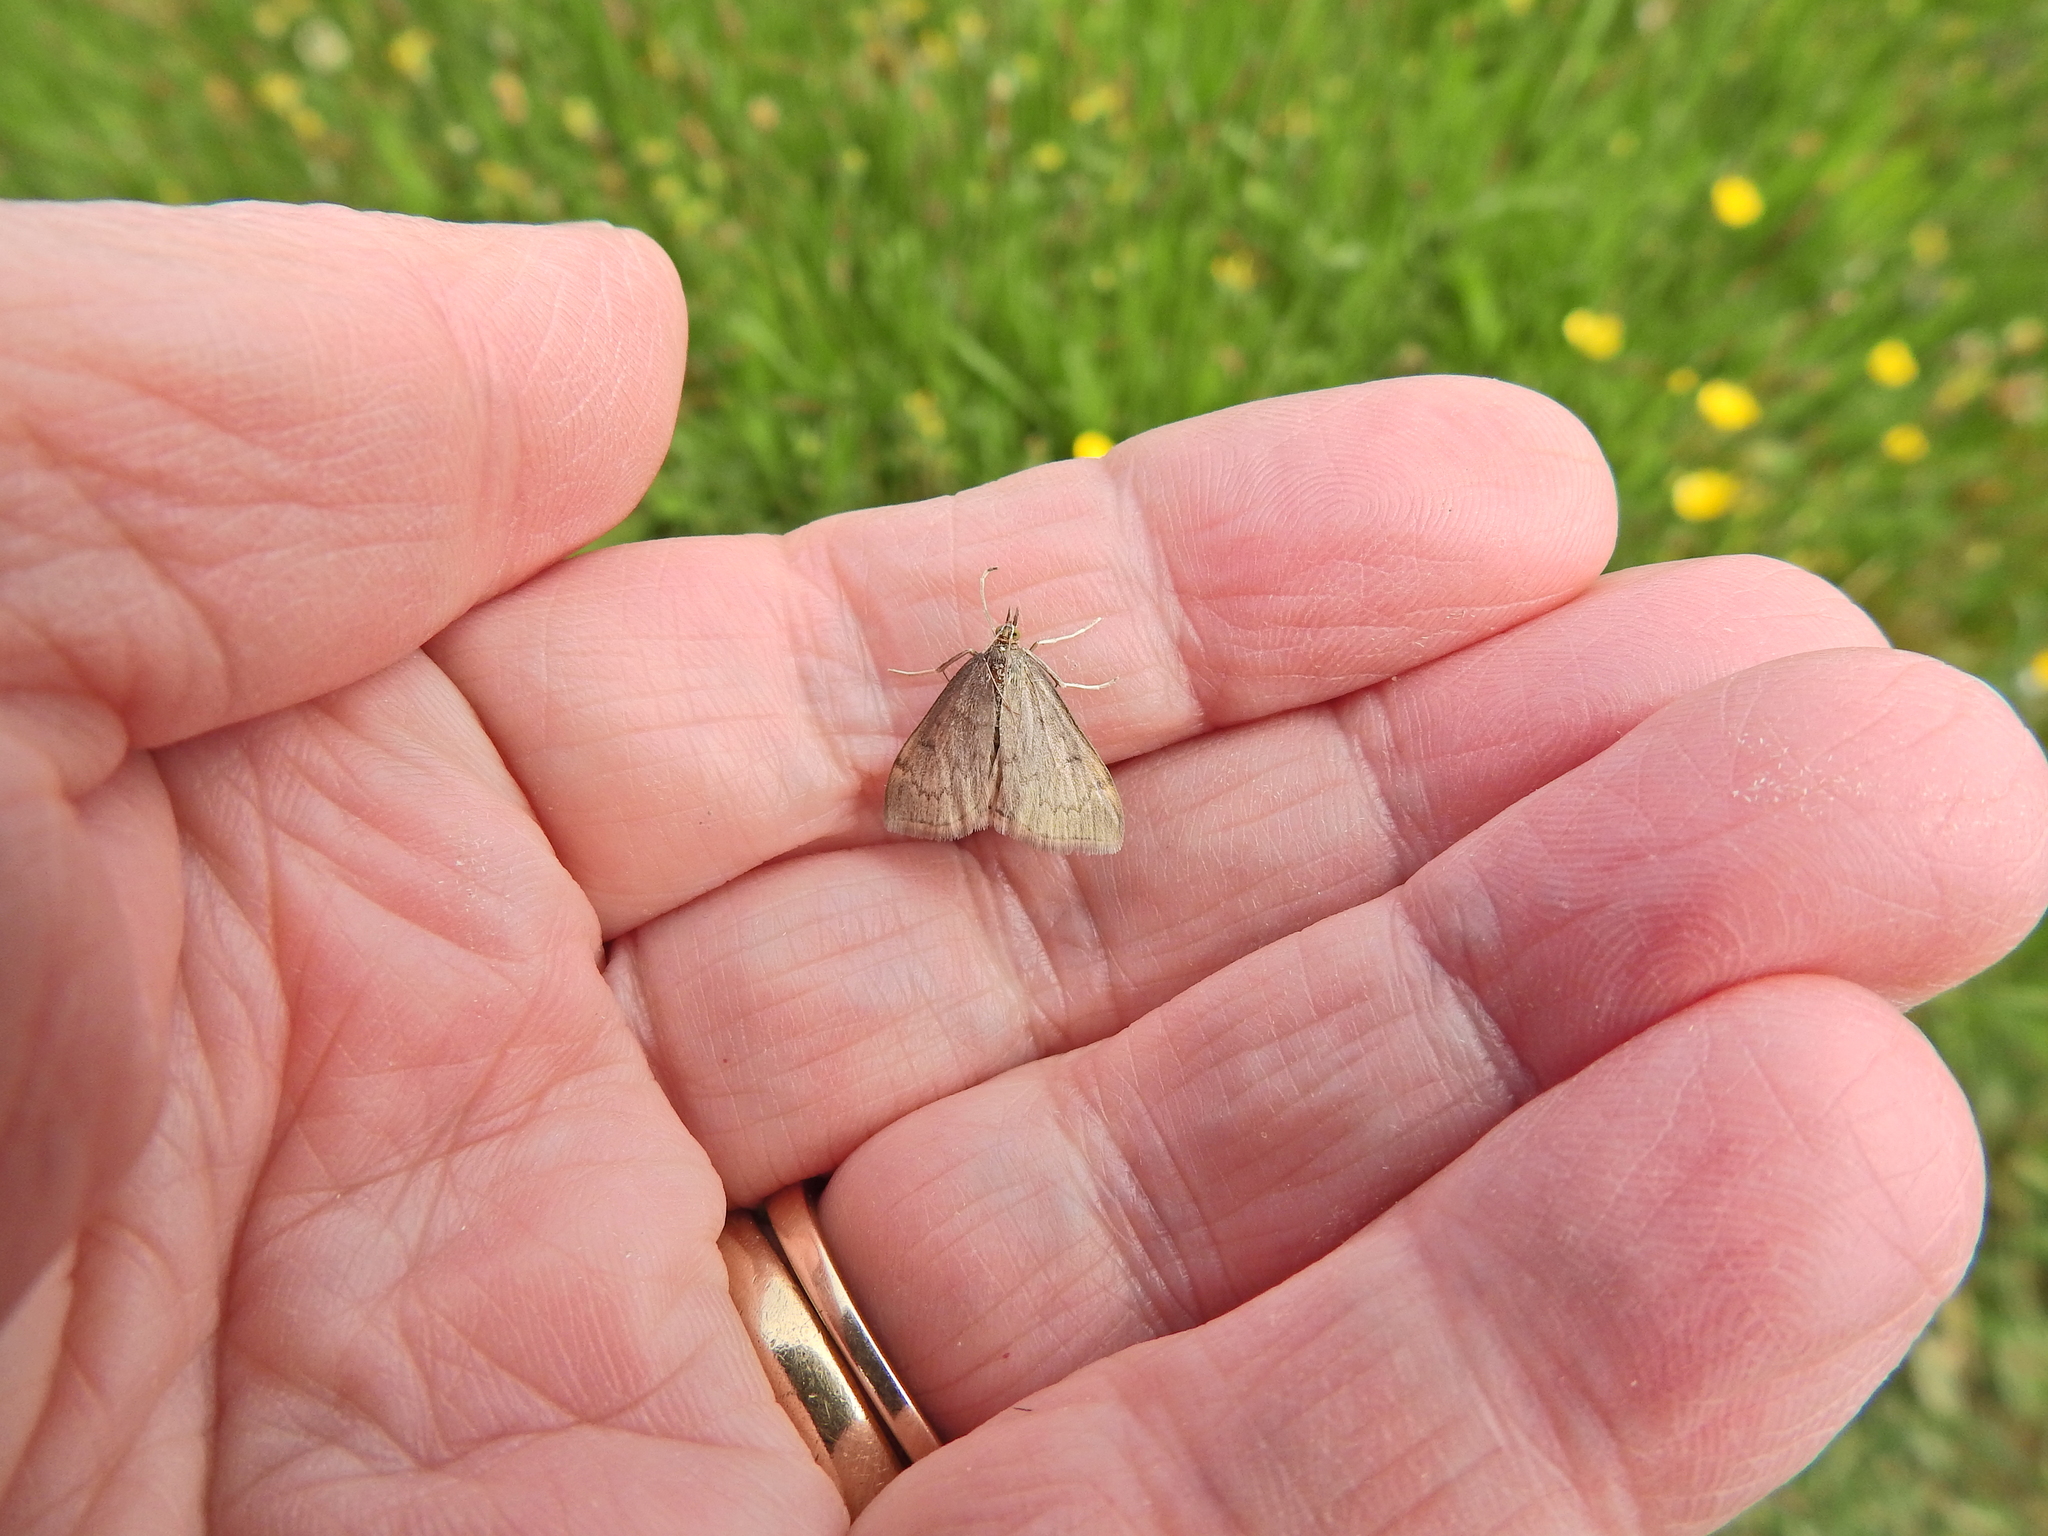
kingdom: Animalia
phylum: Arthropoda
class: Insecta
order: Lepidoptera
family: Crambidae
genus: Anania
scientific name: Anania fuscalis
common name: Cinerous pearl
